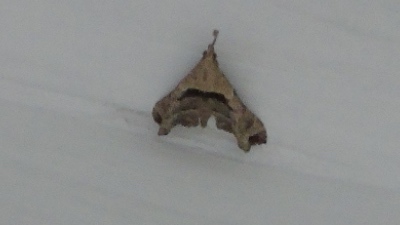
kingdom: Animalia
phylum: Arthropoda
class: Insecta
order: Lepidoptera
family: Erebidae
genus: Palthis
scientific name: Palthis asopialis
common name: Faint-spotted palthis moth
